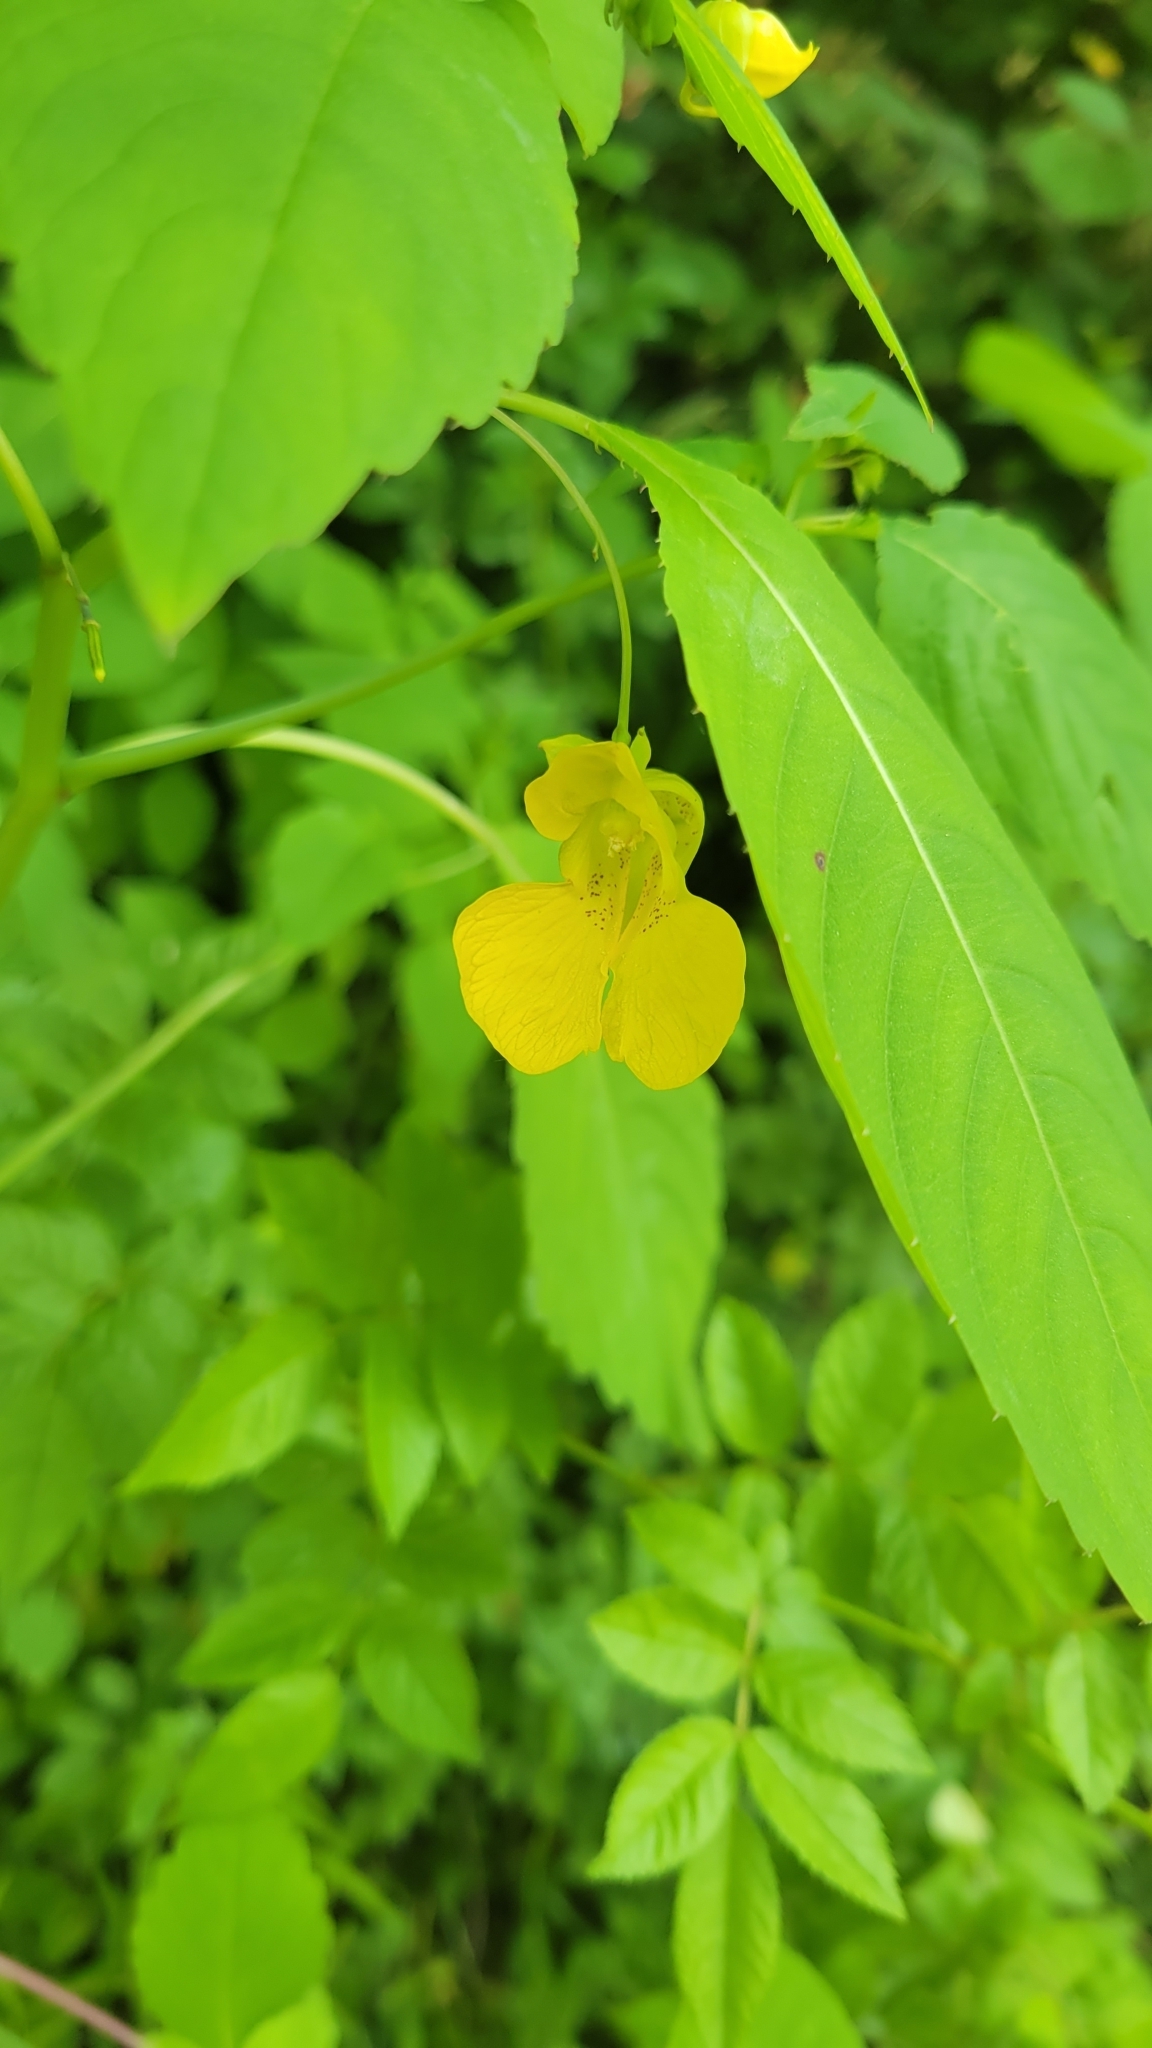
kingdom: Plantae
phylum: Tracheophyta
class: Magnoliopsida
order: Ericales
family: Balsaminaceae
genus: Impatiens
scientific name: Impatiens pallida
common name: Pale snapweed
